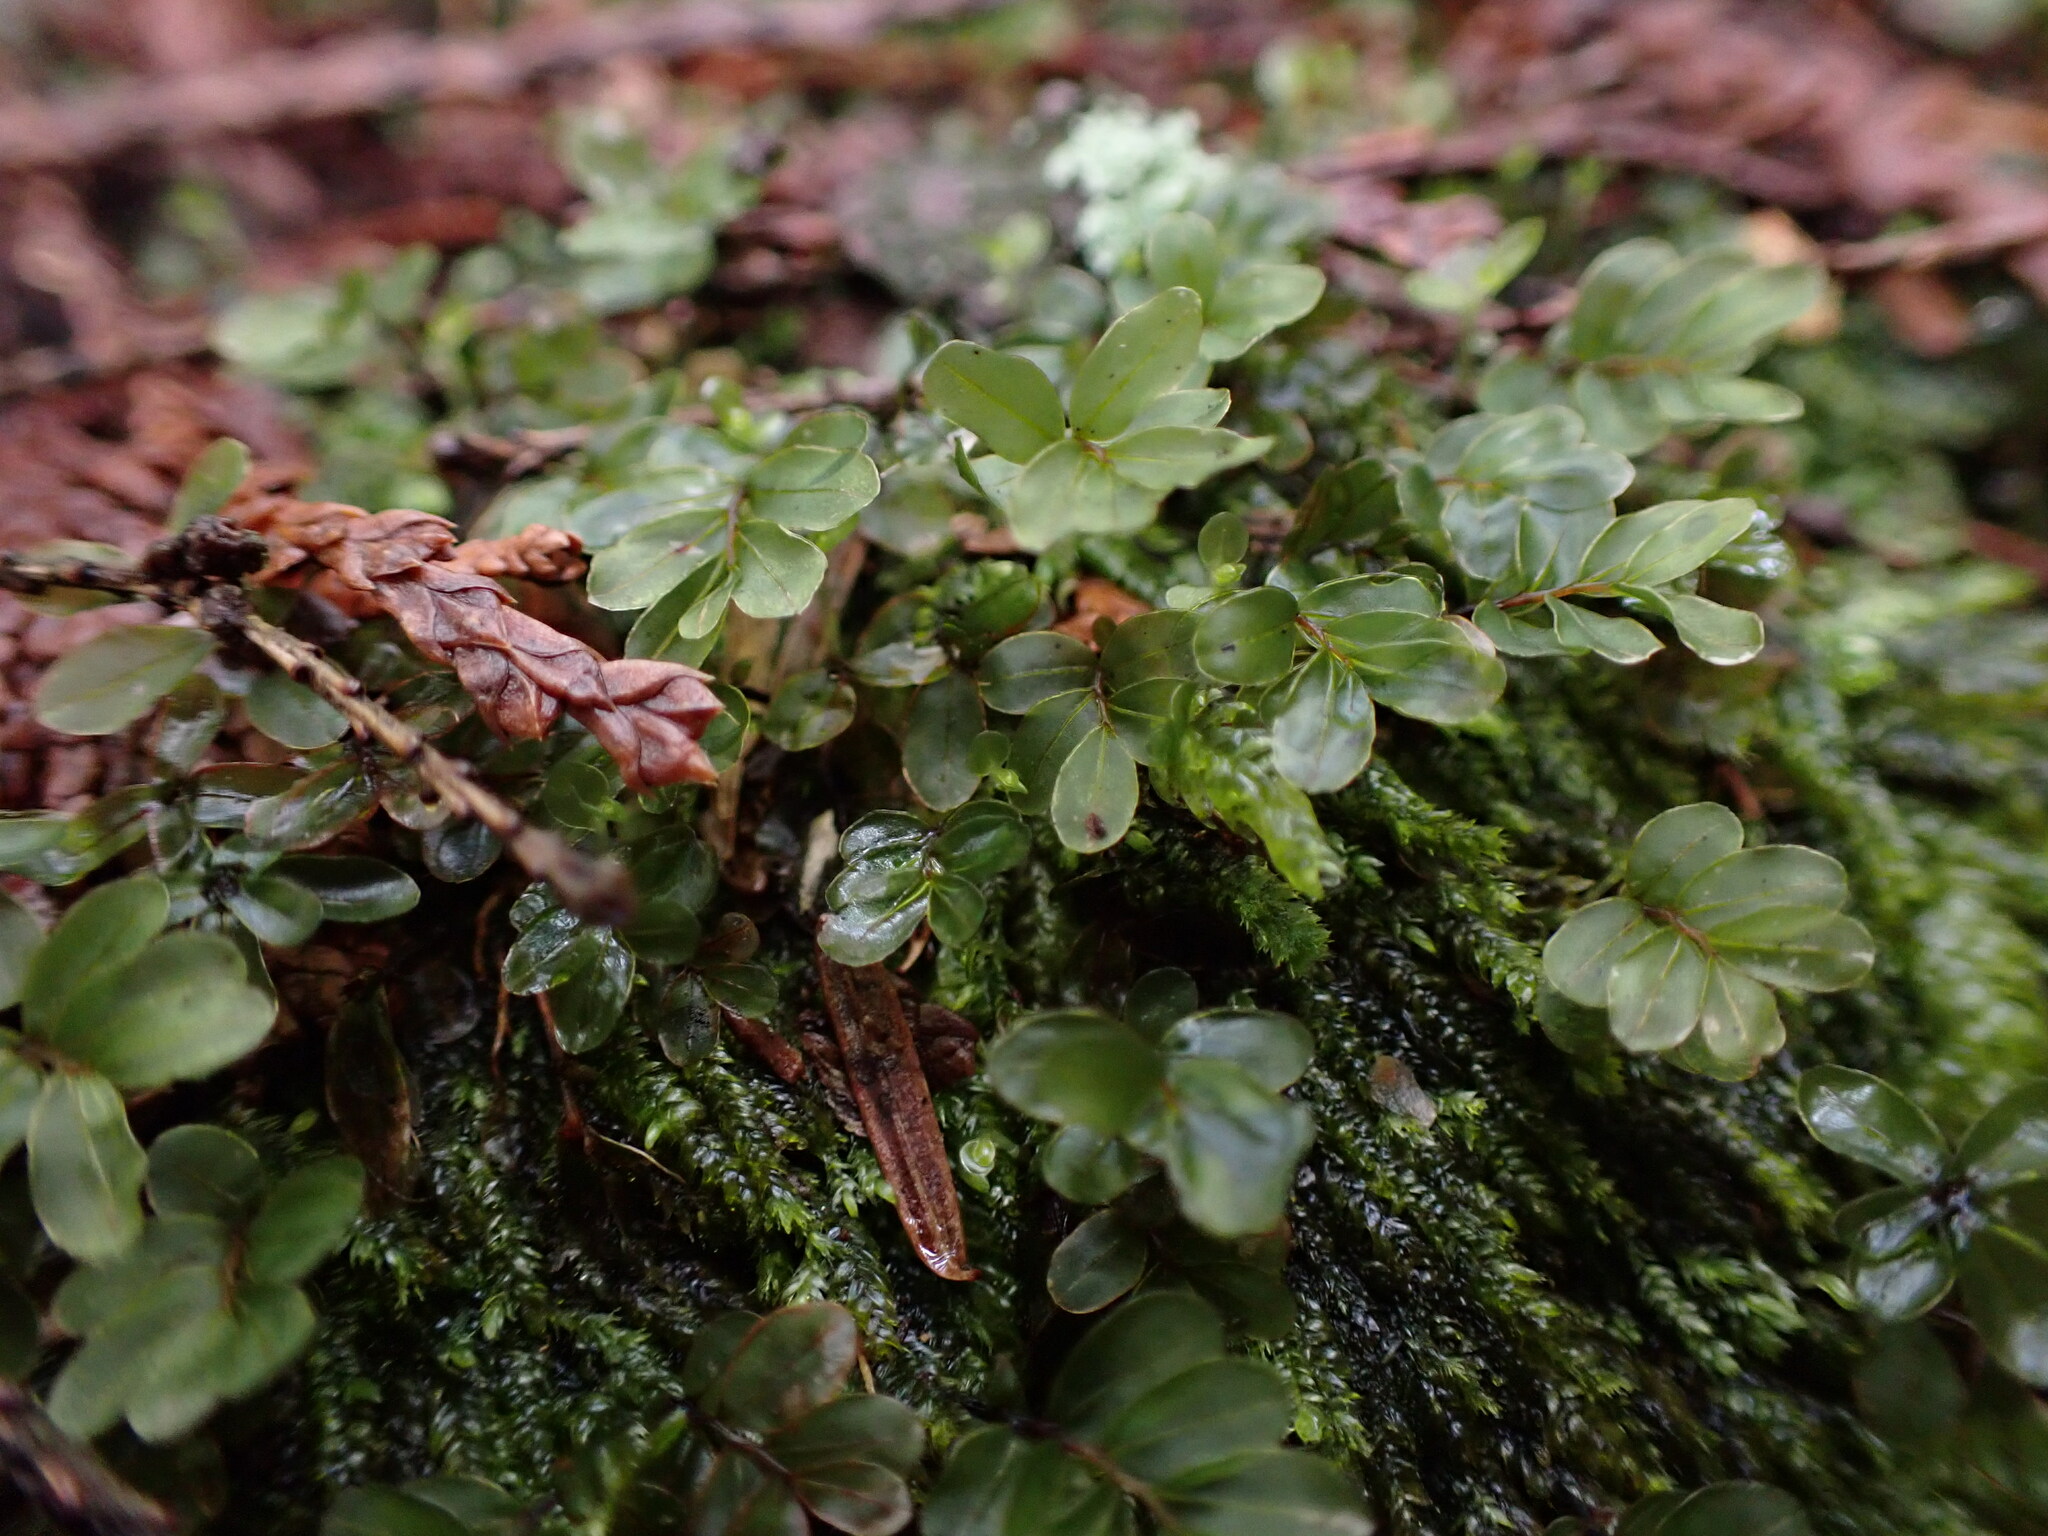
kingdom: Plantae
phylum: Bryophyta
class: Bryopsida
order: Bryales
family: Mniaceae
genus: Rhizomnium
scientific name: Rhizomnium glabrescens
